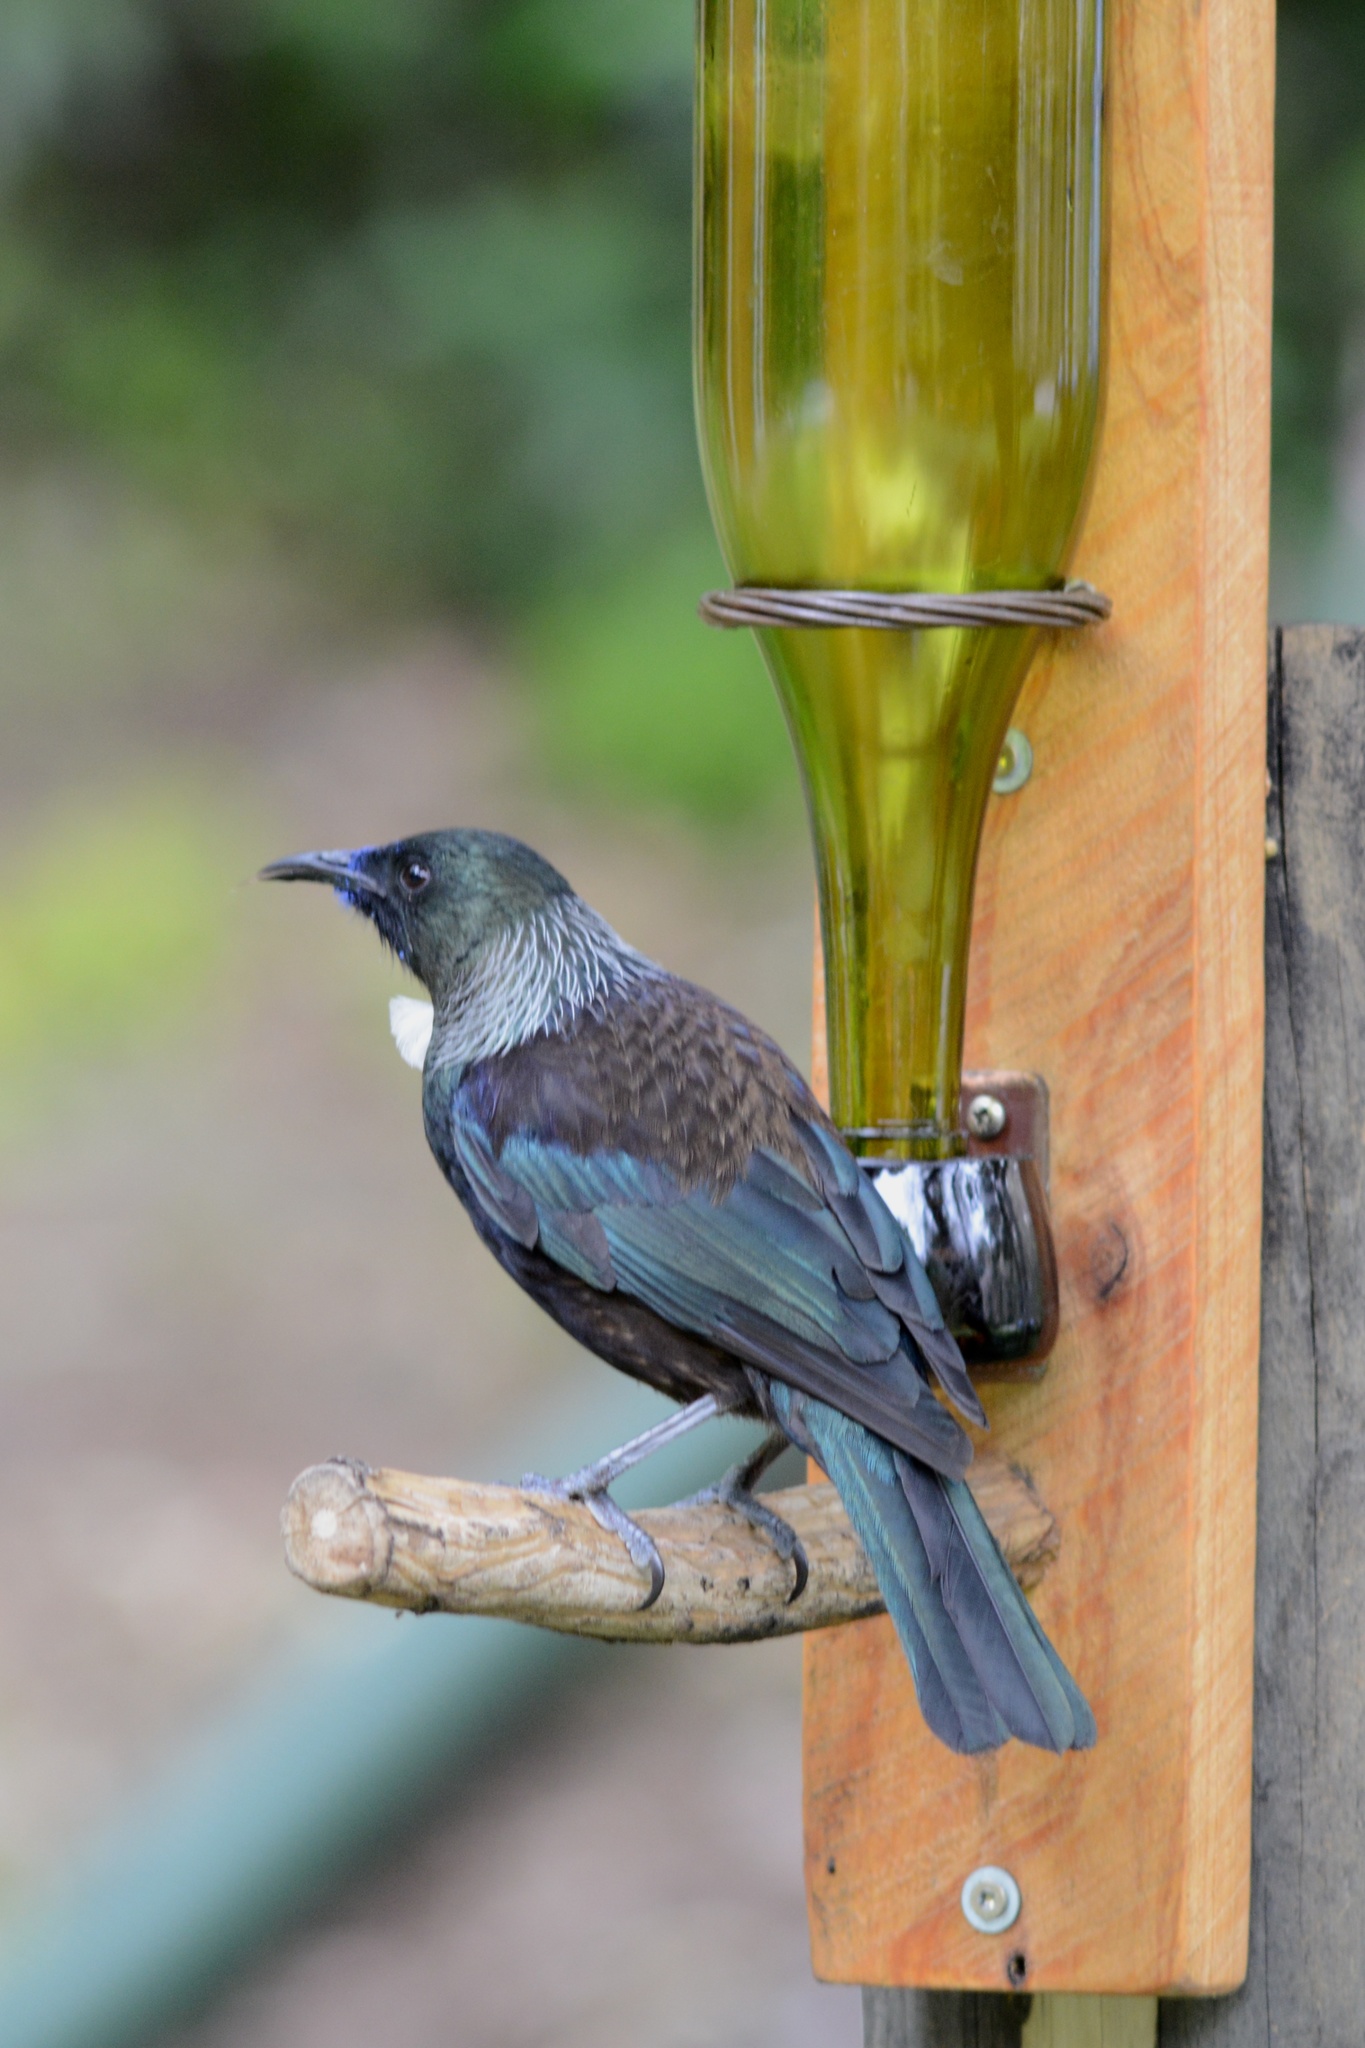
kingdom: Animalia
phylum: Chordata
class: Aves
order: Passeriformes
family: Meliphagidae
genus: Prosthemadera
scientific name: Prosthemadera novaeseelandiae
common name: Tui
